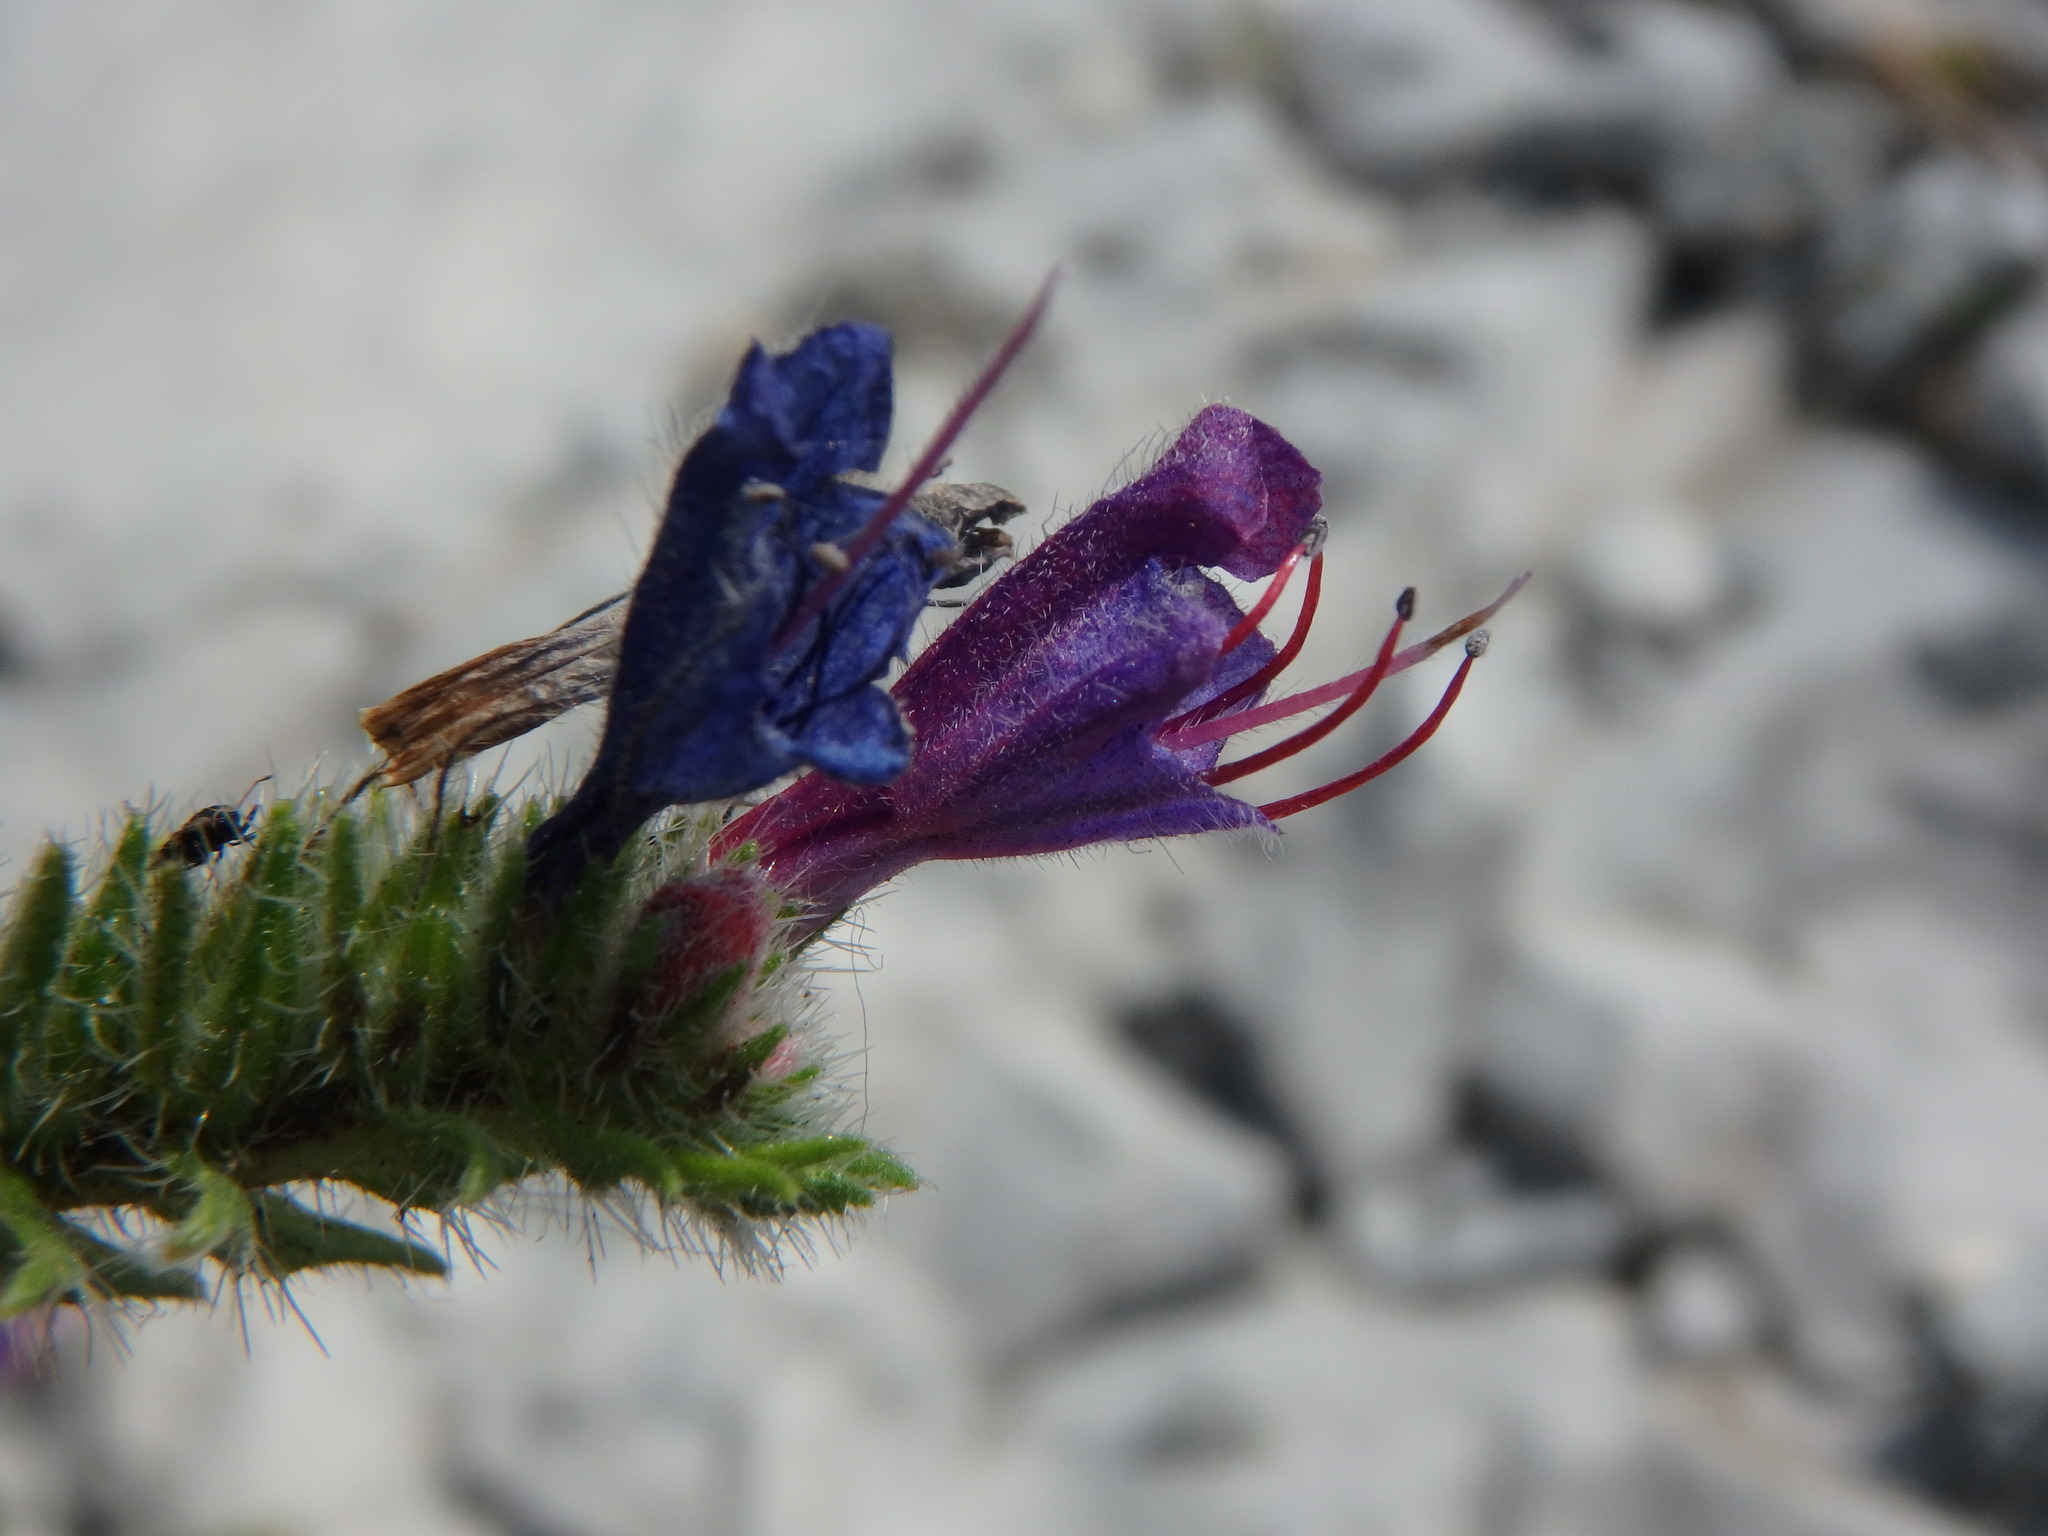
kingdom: Plantae
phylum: Tracheophyta
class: Magnoliopsida
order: Boraginales
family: Boraginaceae
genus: Echium
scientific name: Echium vulgare
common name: Common viper's bugloss
